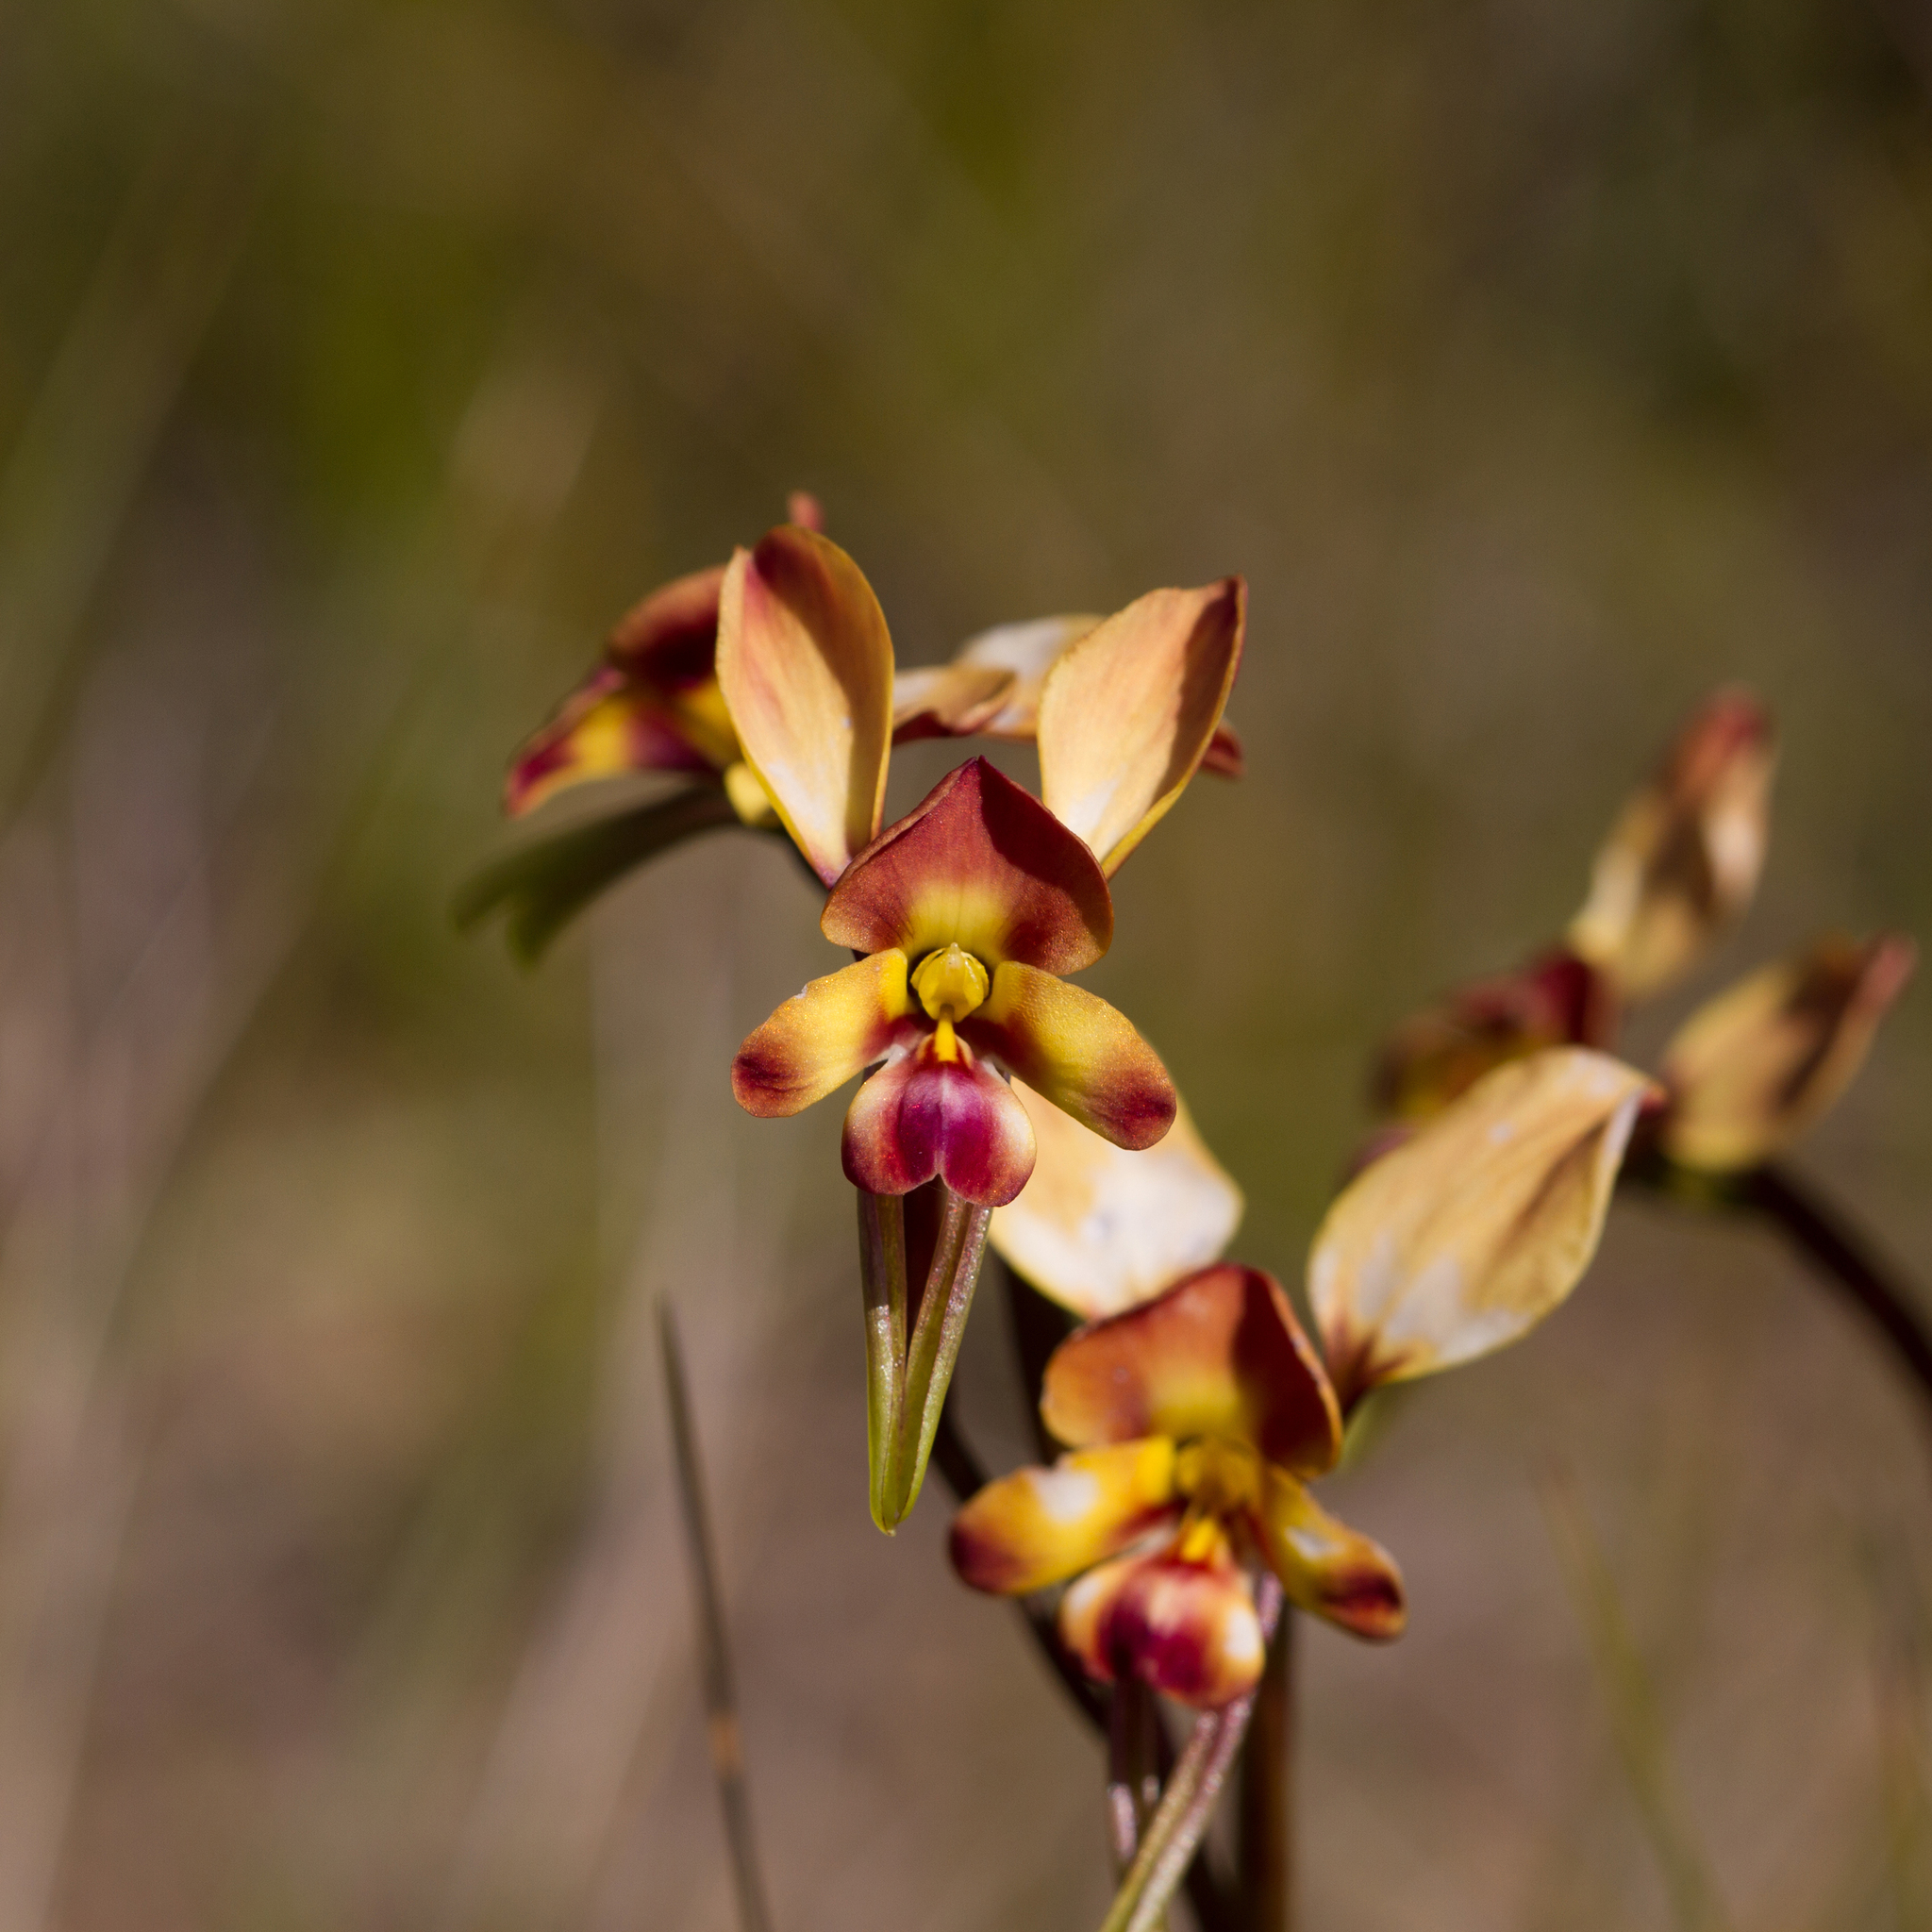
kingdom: Plantae
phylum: Tracheophyta
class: Liliopsida
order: Asparagales
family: Orchidaceae
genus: Diuris
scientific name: Diuris orientis
